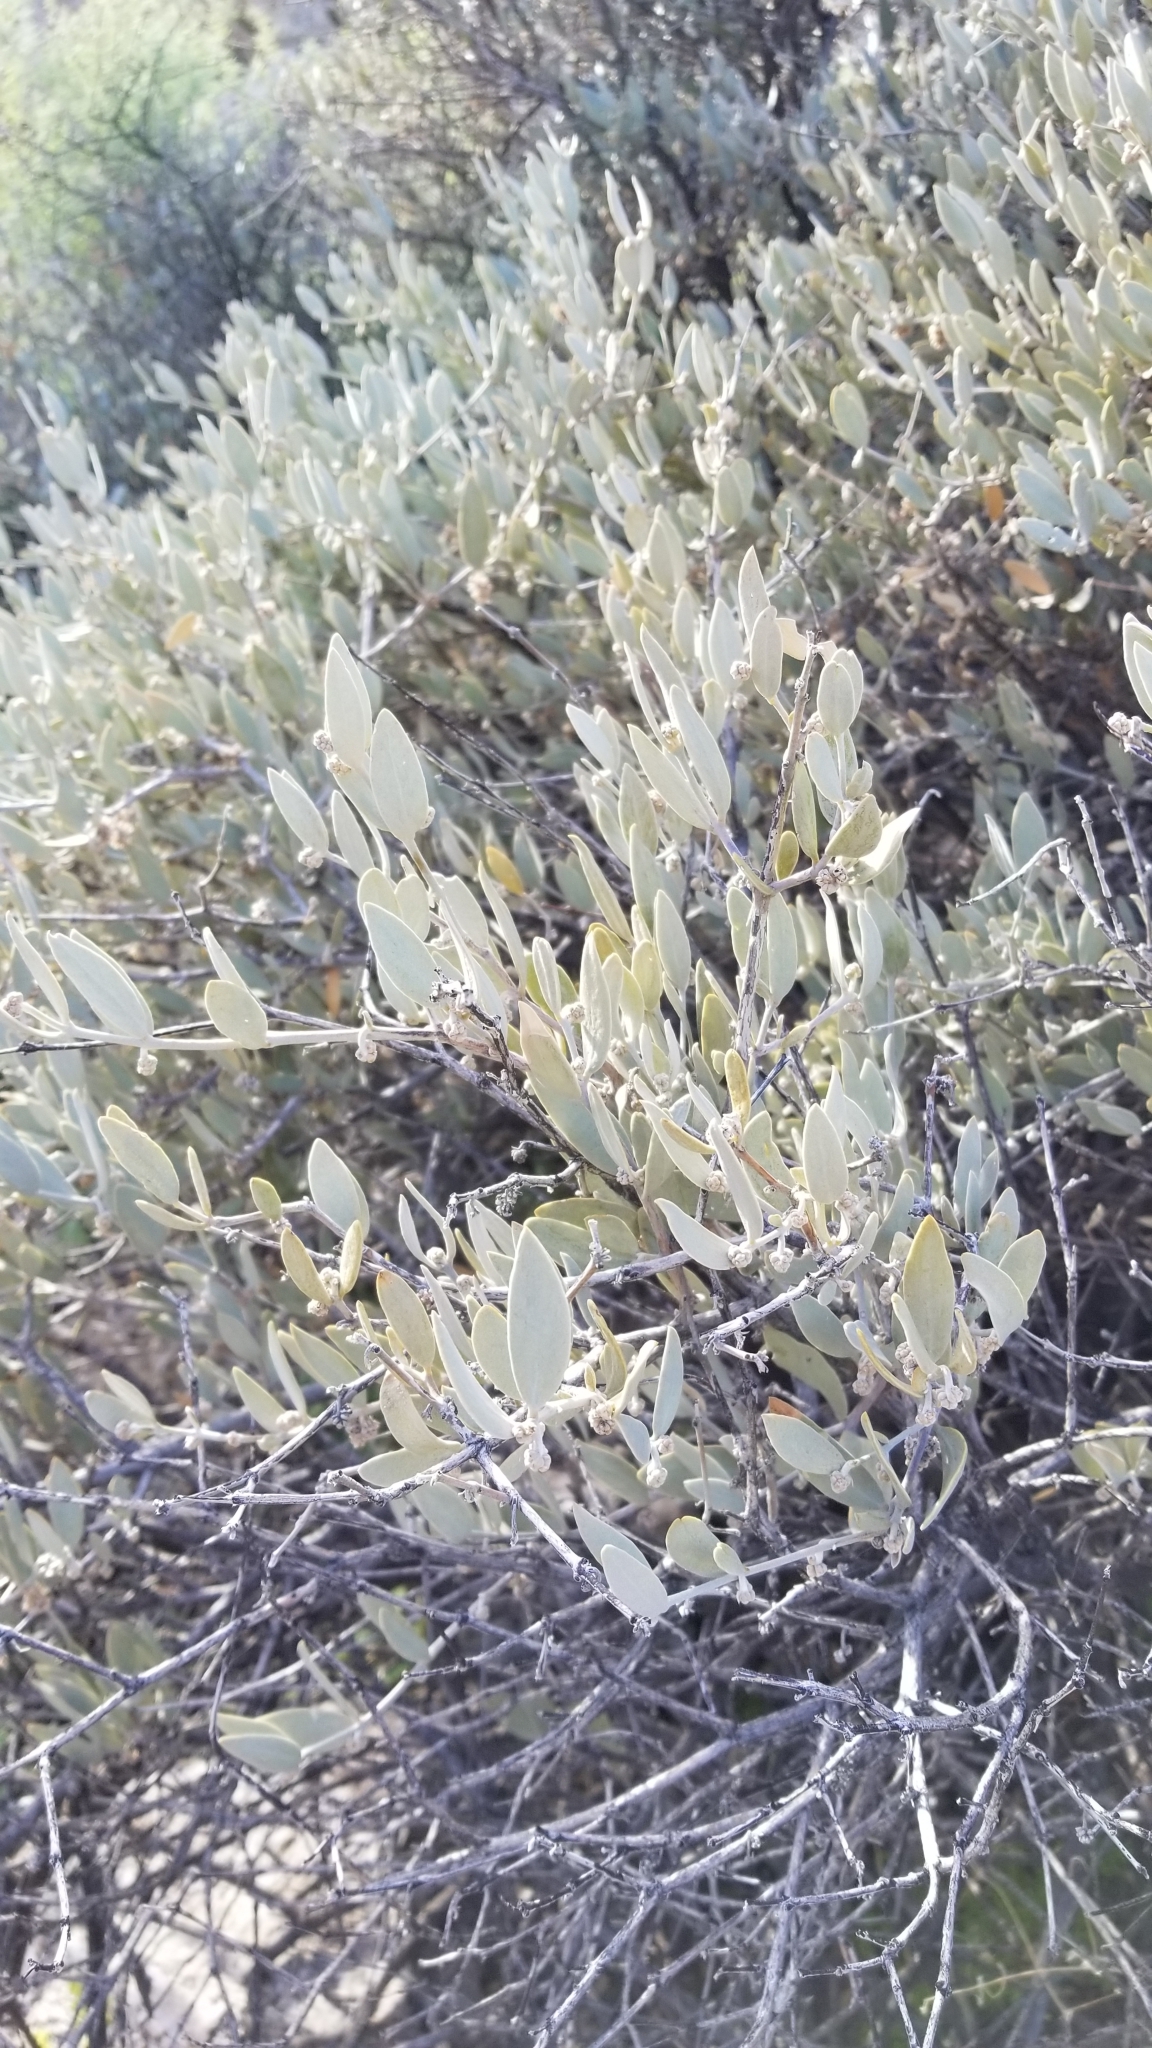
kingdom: Plantae
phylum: Tracheophyta
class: Magnoliopsida
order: Caryophyllales
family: Simmondsiaceae
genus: Simmondsia
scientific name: Simmondsia chinensis
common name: Jojoba
